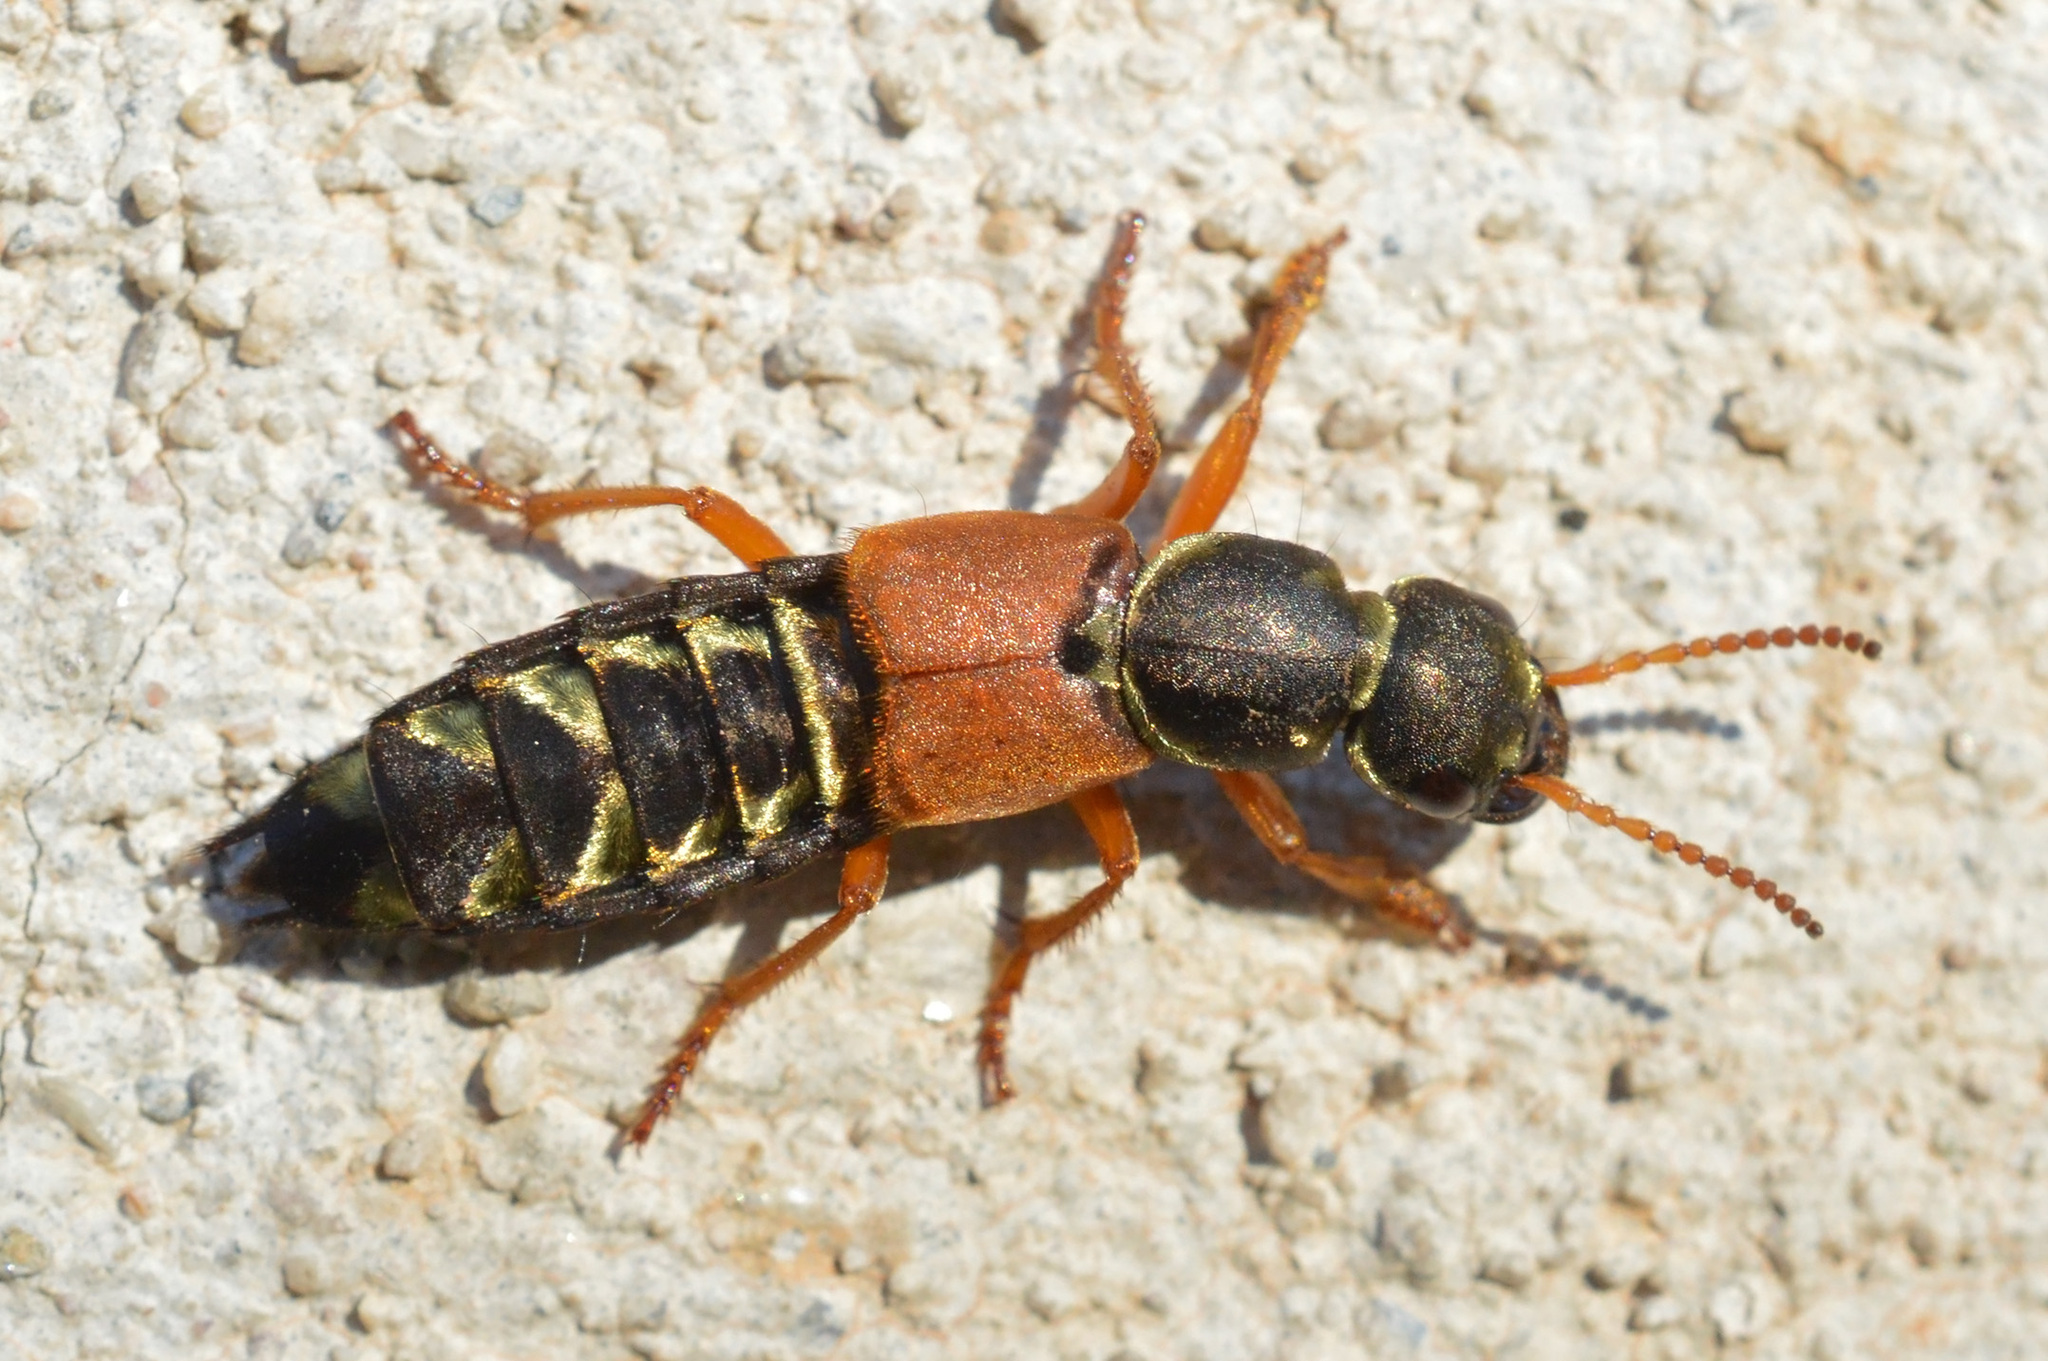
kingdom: Animalia
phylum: Arthropoda
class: Insecta
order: Coleoptera
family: Staphylinidae
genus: Staphylinus
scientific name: Staphylinus caesareus
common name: Staph beetle
